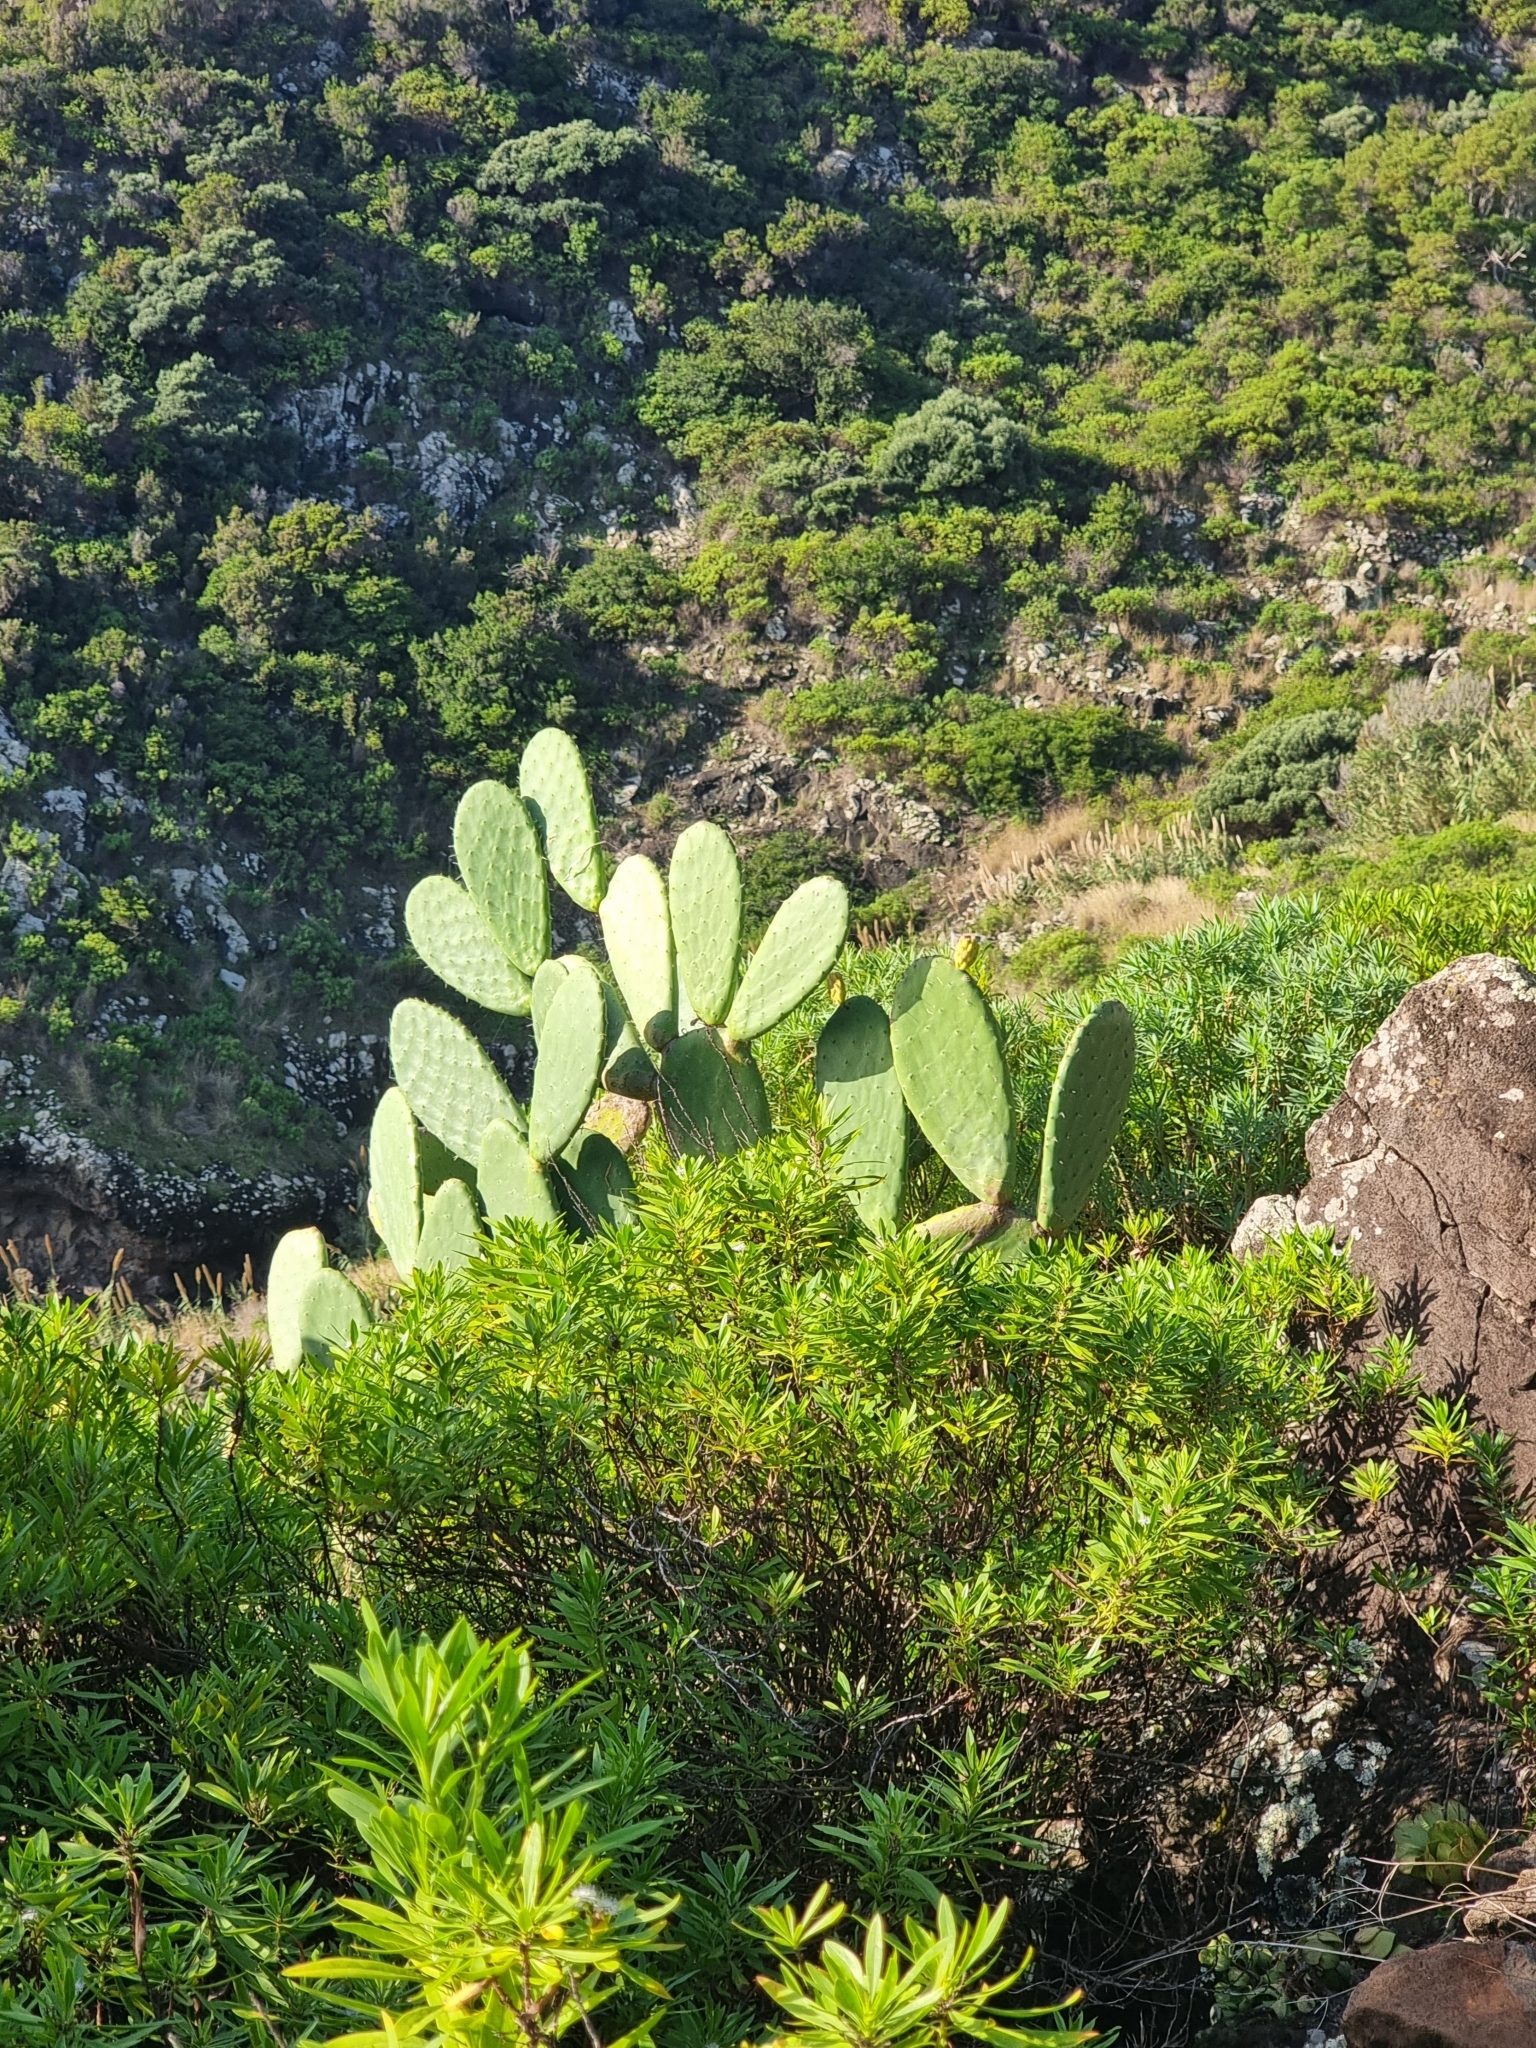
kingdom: Plantae
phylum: Tracheophyta
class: Magnoliopsida
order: Caryophyllales
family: Cactaceae
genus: Opuntia
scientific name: Opuntia ficus-indica
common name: Barbary fig
